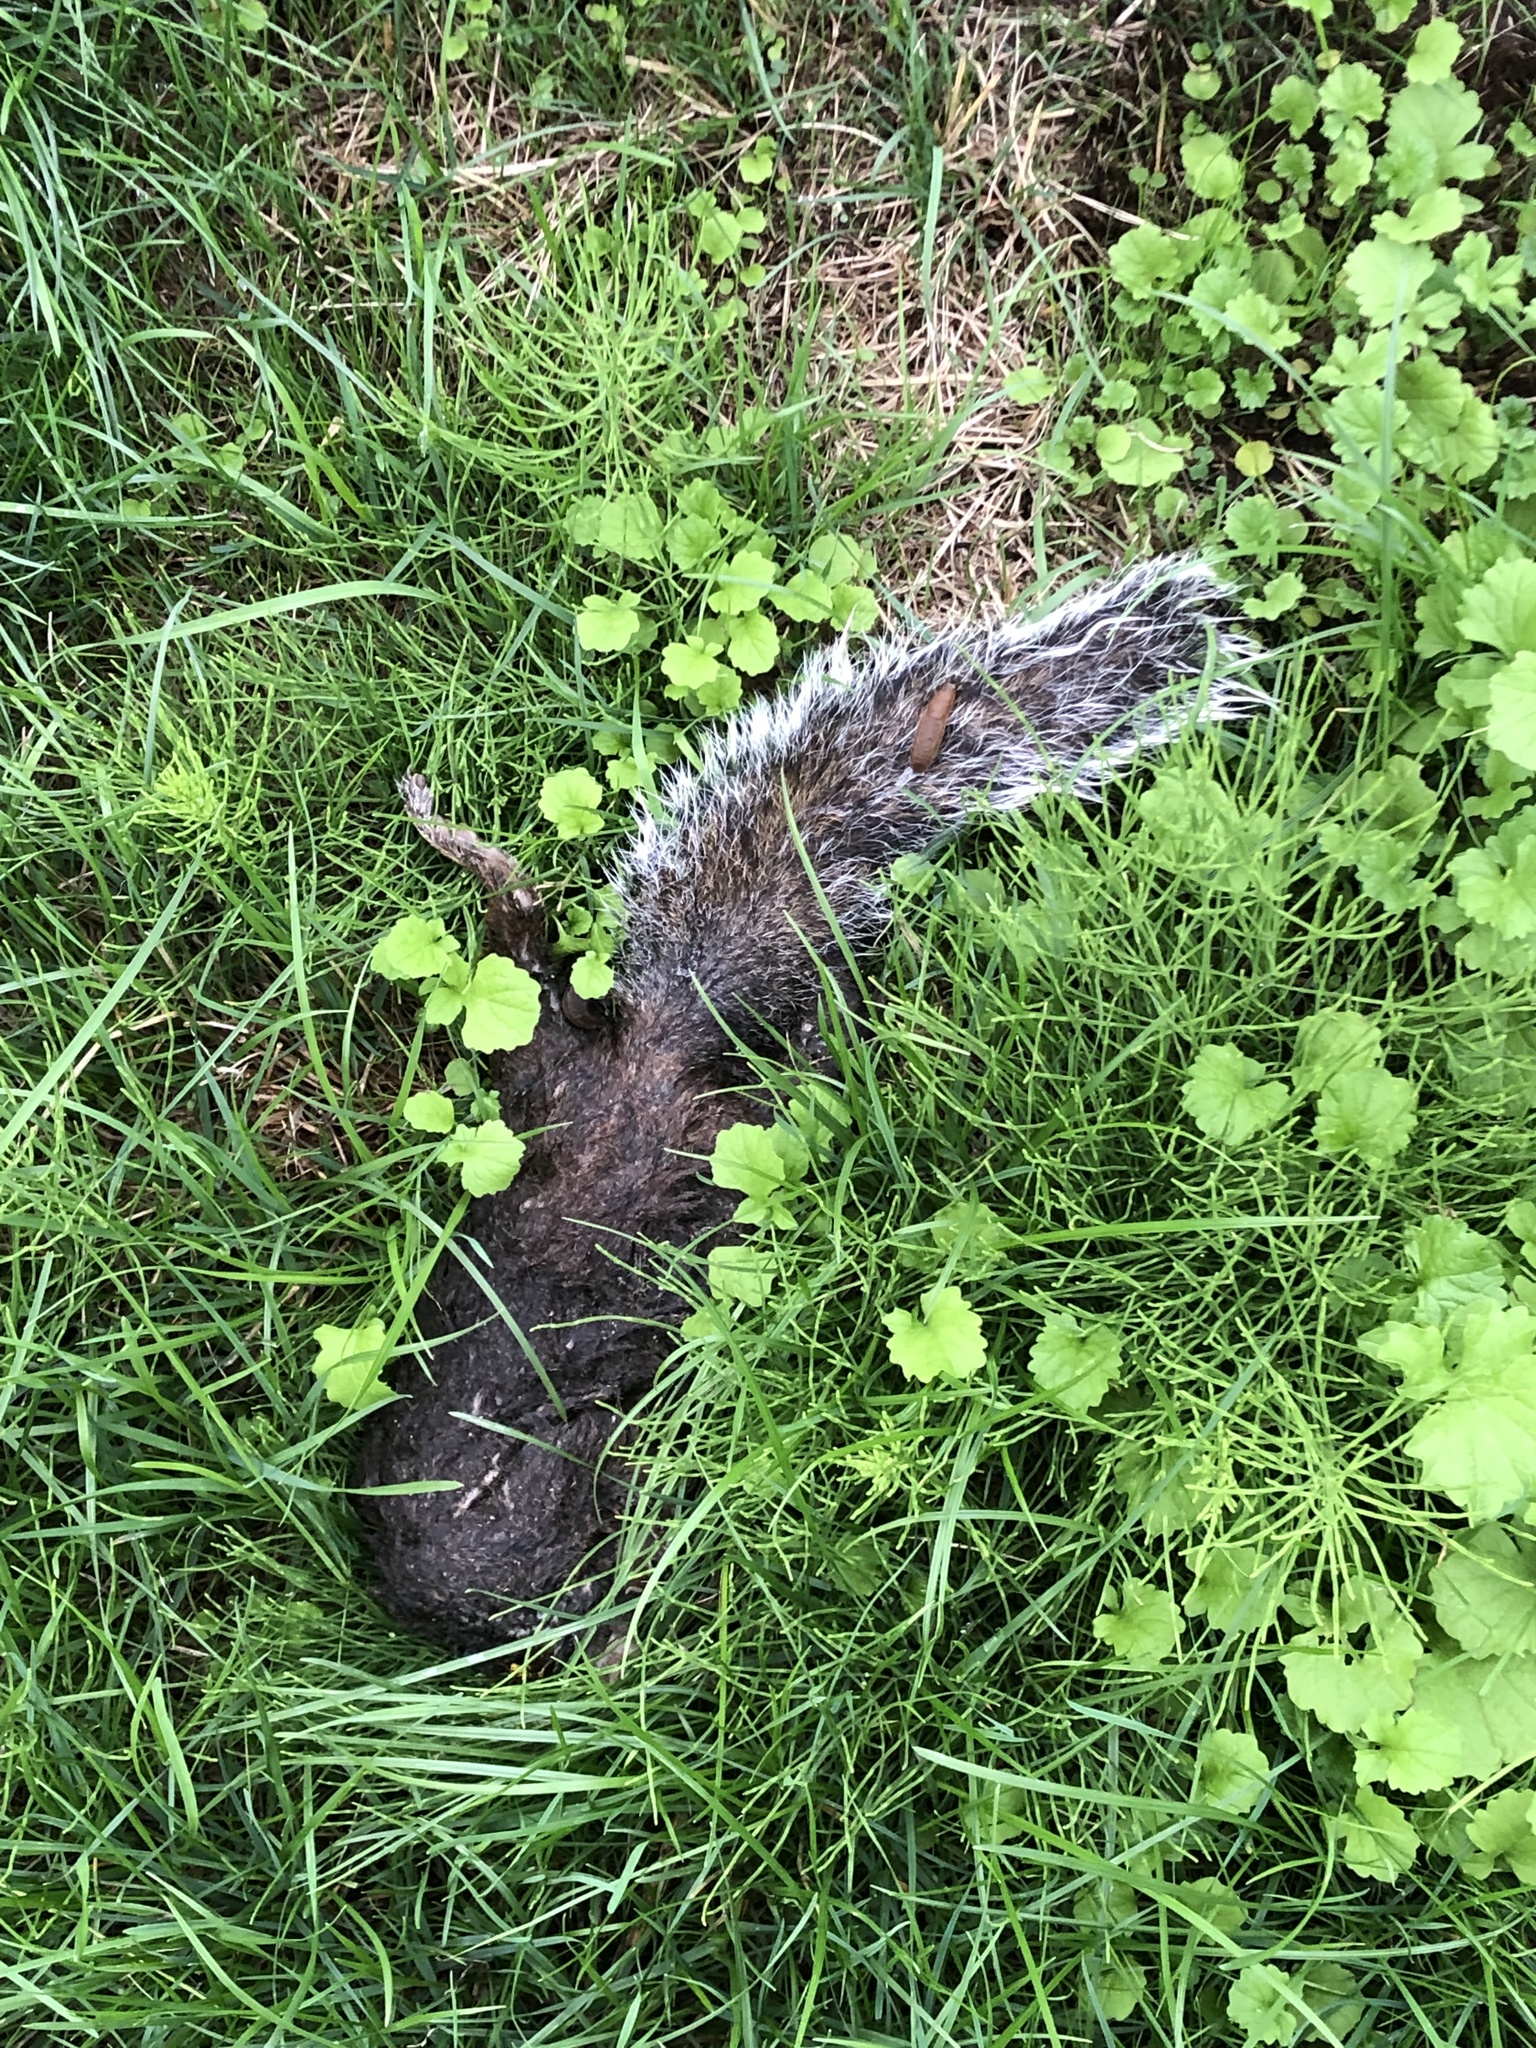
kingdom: Animalia
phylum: Chordata
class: Mammalia
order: Rodentia
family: Sciuridae
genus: Sciurus
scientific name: Sciurus carolinensis
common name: Eastern gray squirrel
